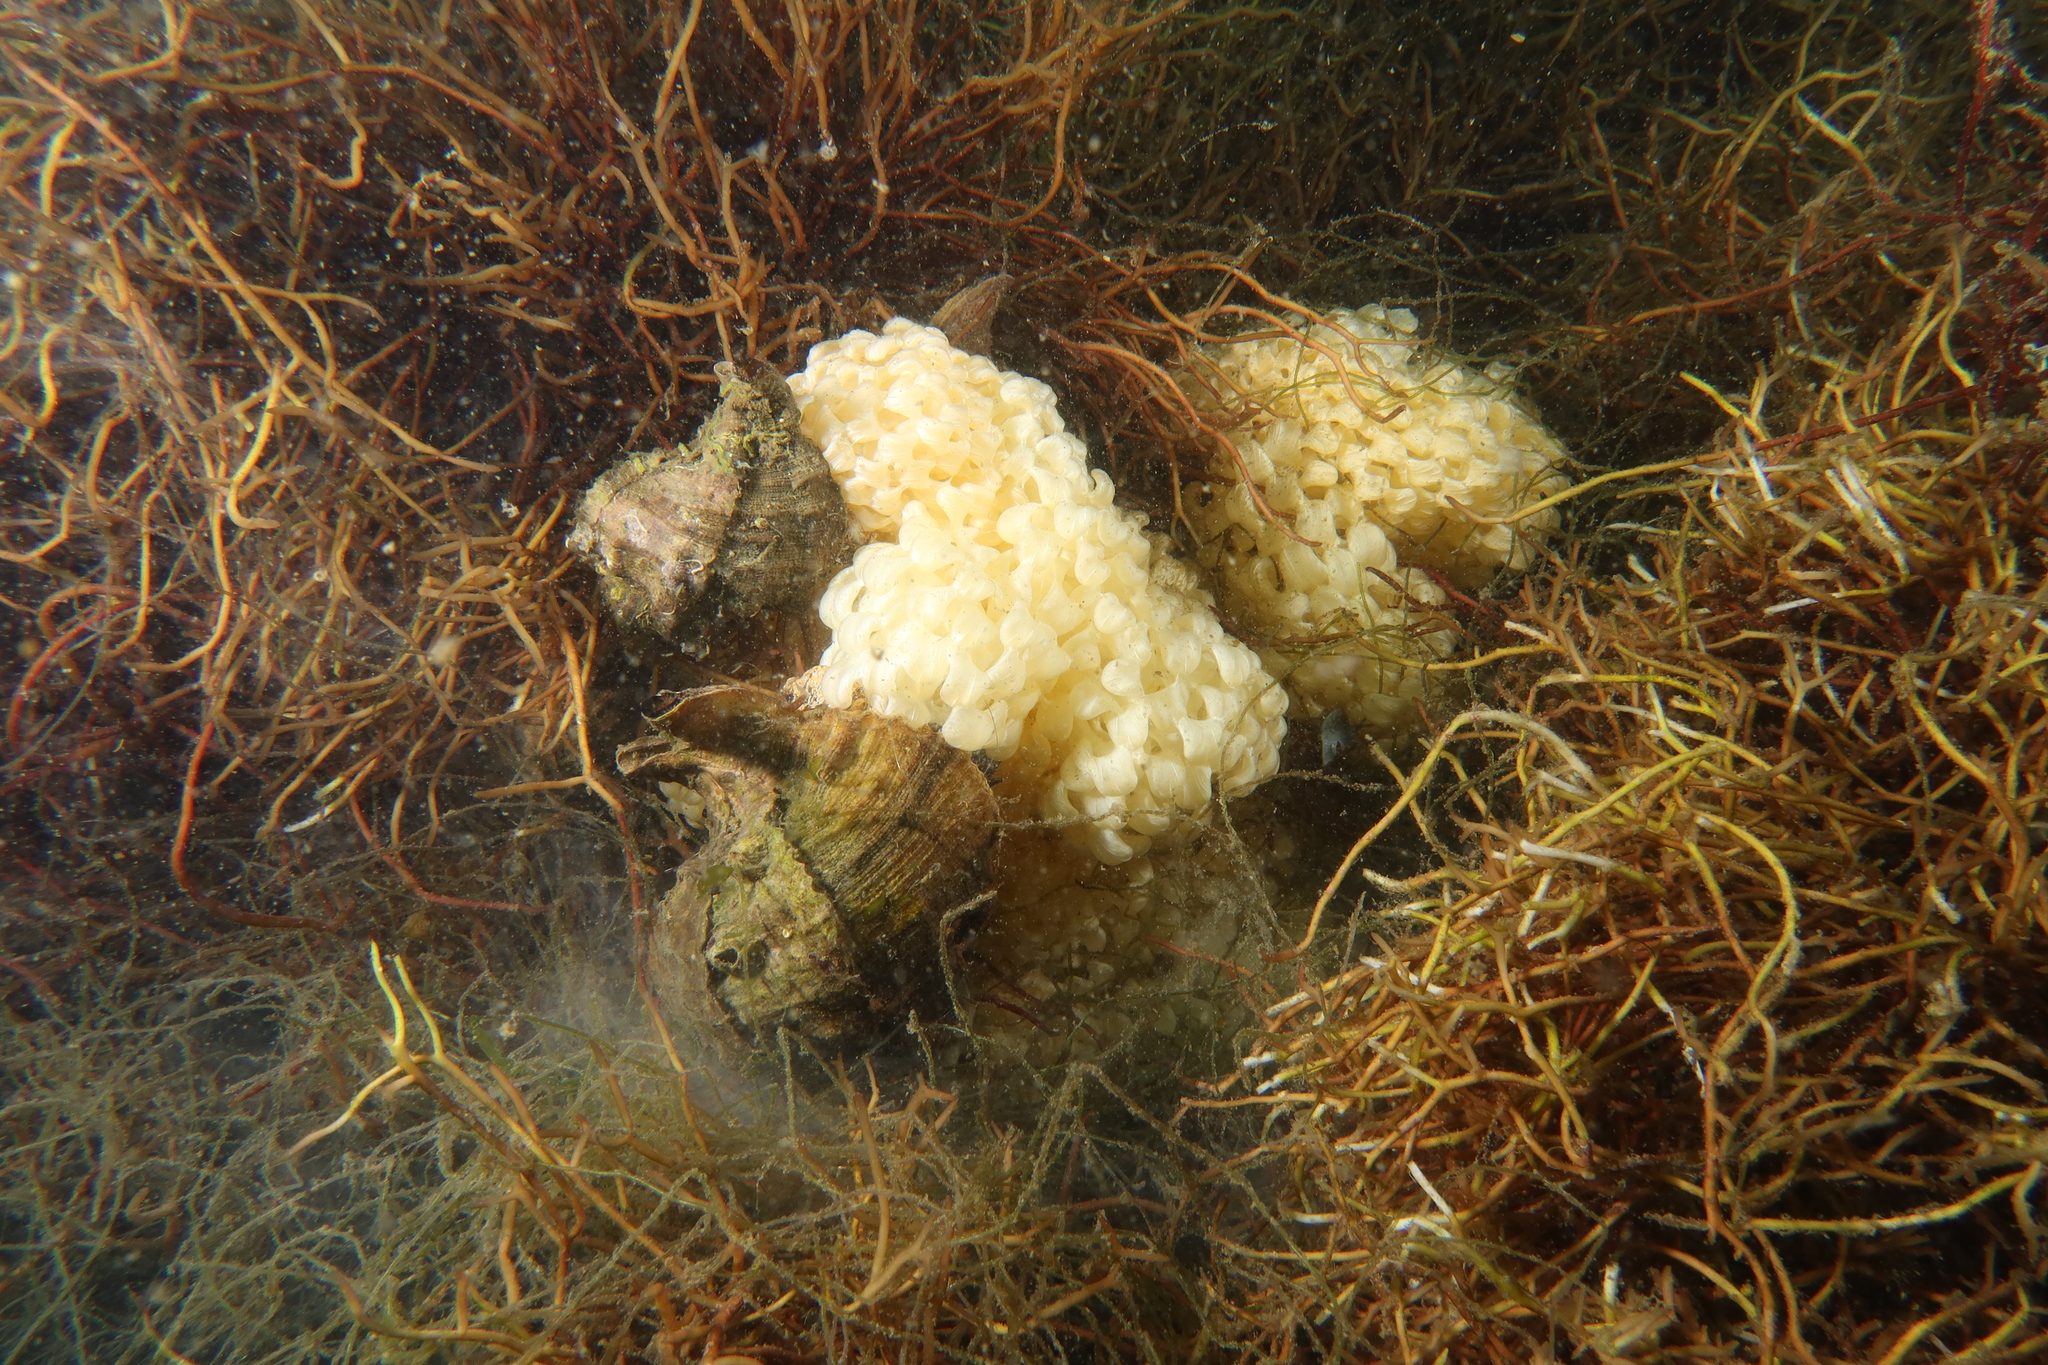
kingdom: Animalia
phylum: Mollusca
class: Gastropoda
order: Neogastropoda
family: Muricidae
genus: Hexaplex
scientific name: Hexaplex trunculus
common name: Banded dye-murex
